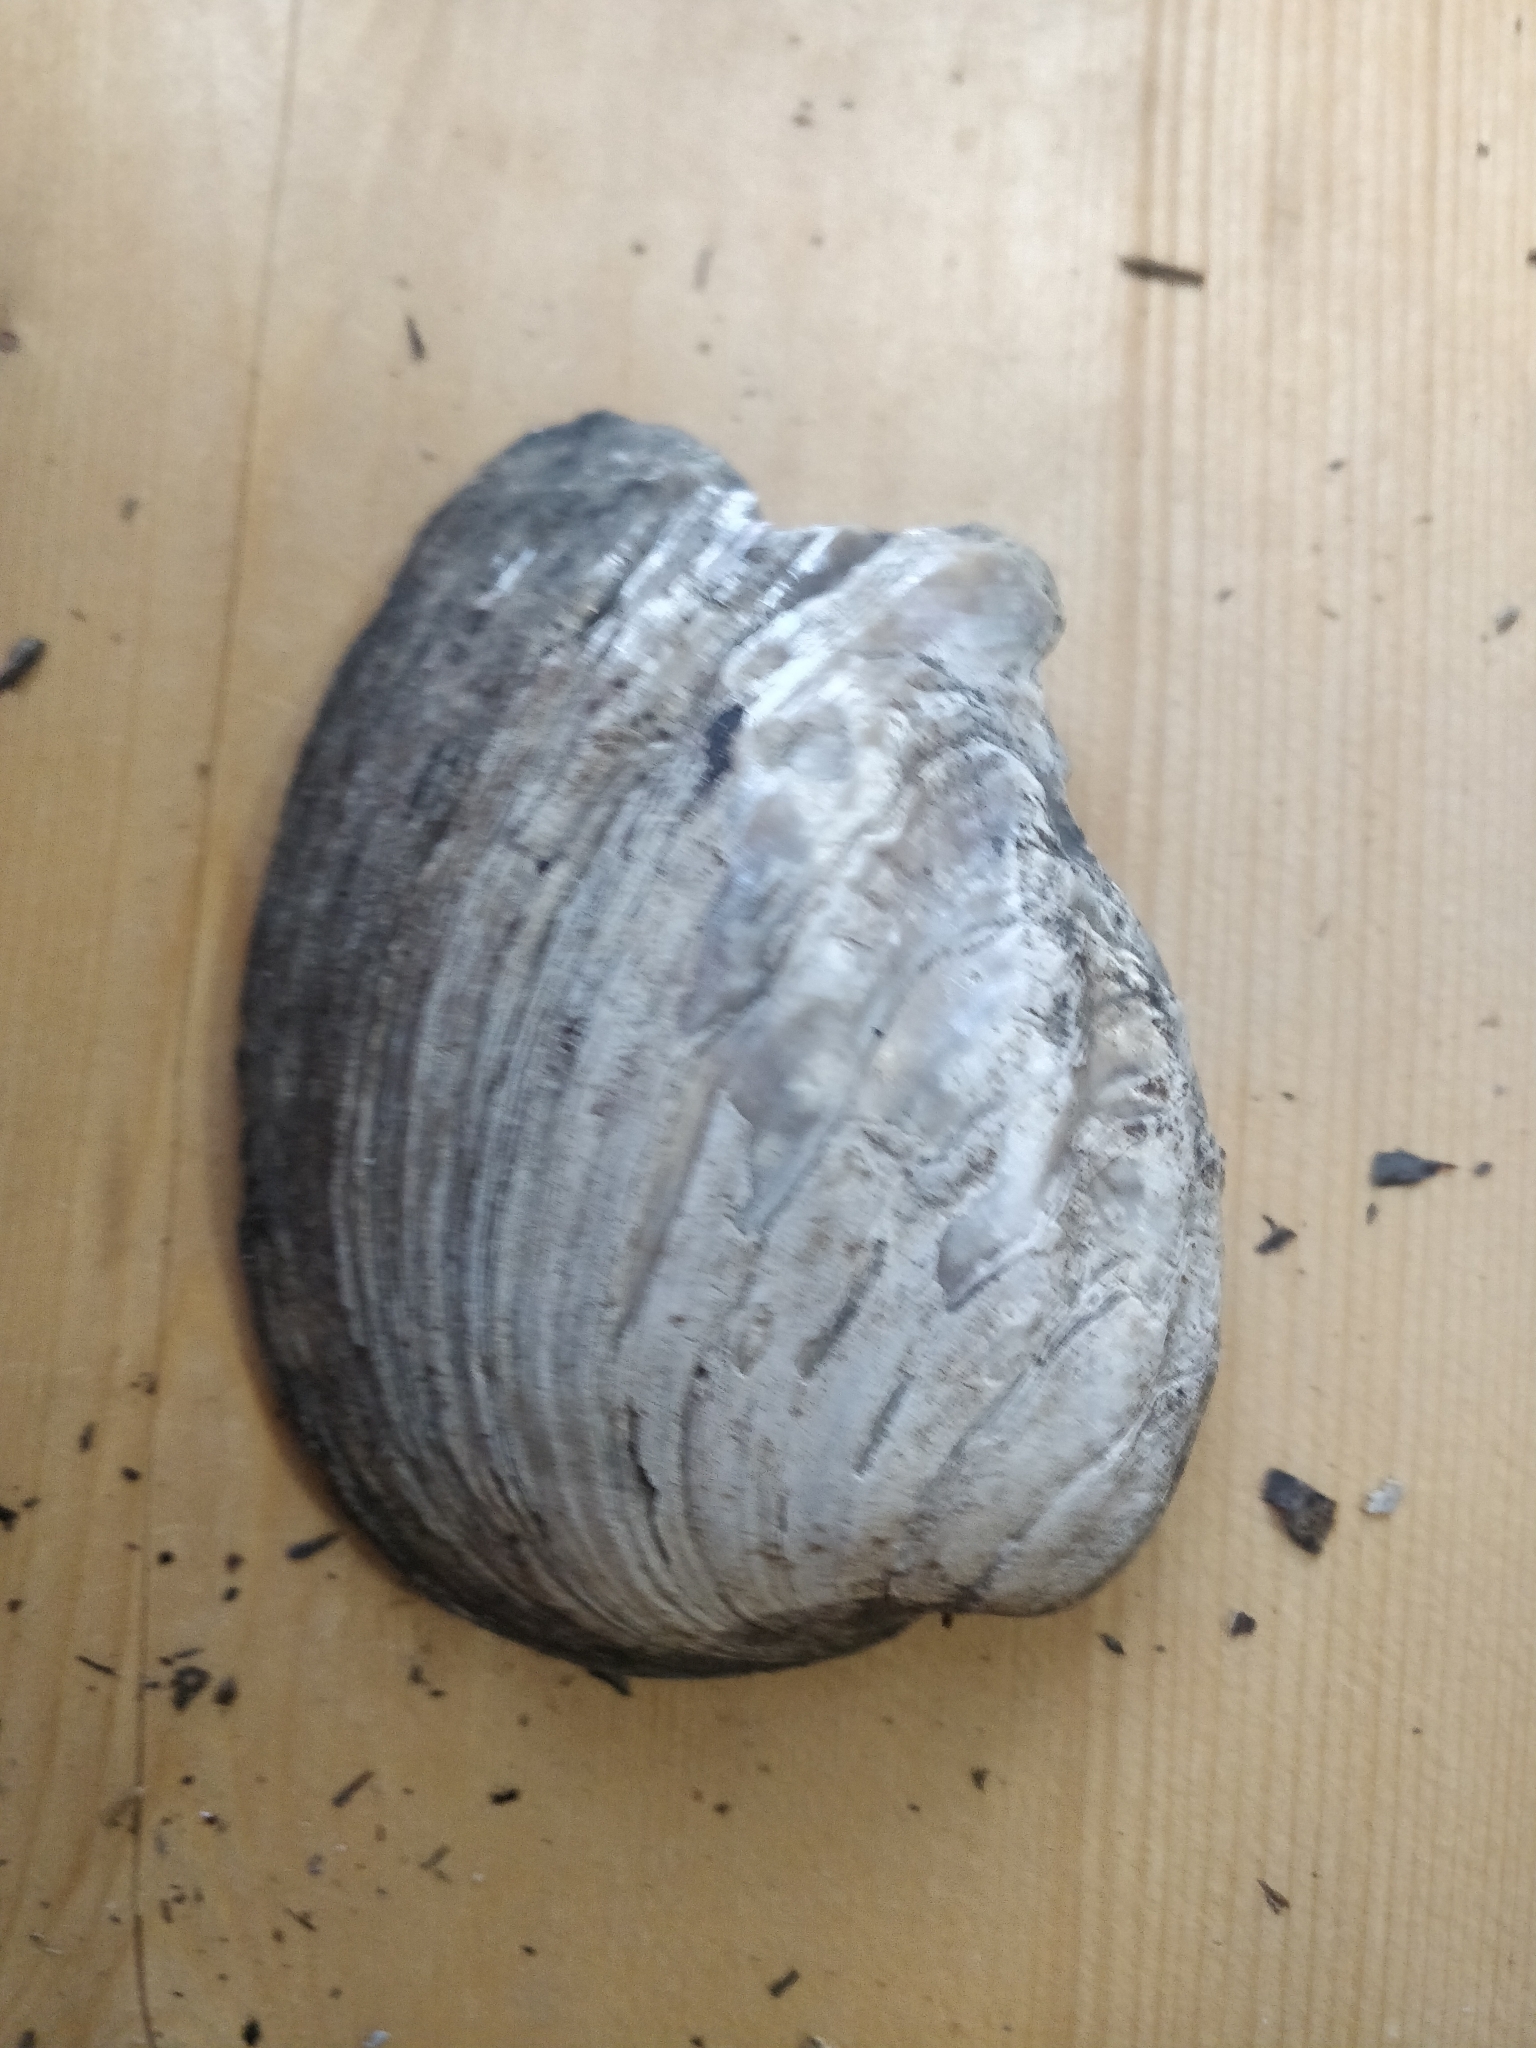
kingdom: Animalia
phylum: Mollusca
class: Bivalvia
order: Unionida
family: Unionidae
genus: Amblema
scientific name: Amblema plicata
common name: Threeridge
